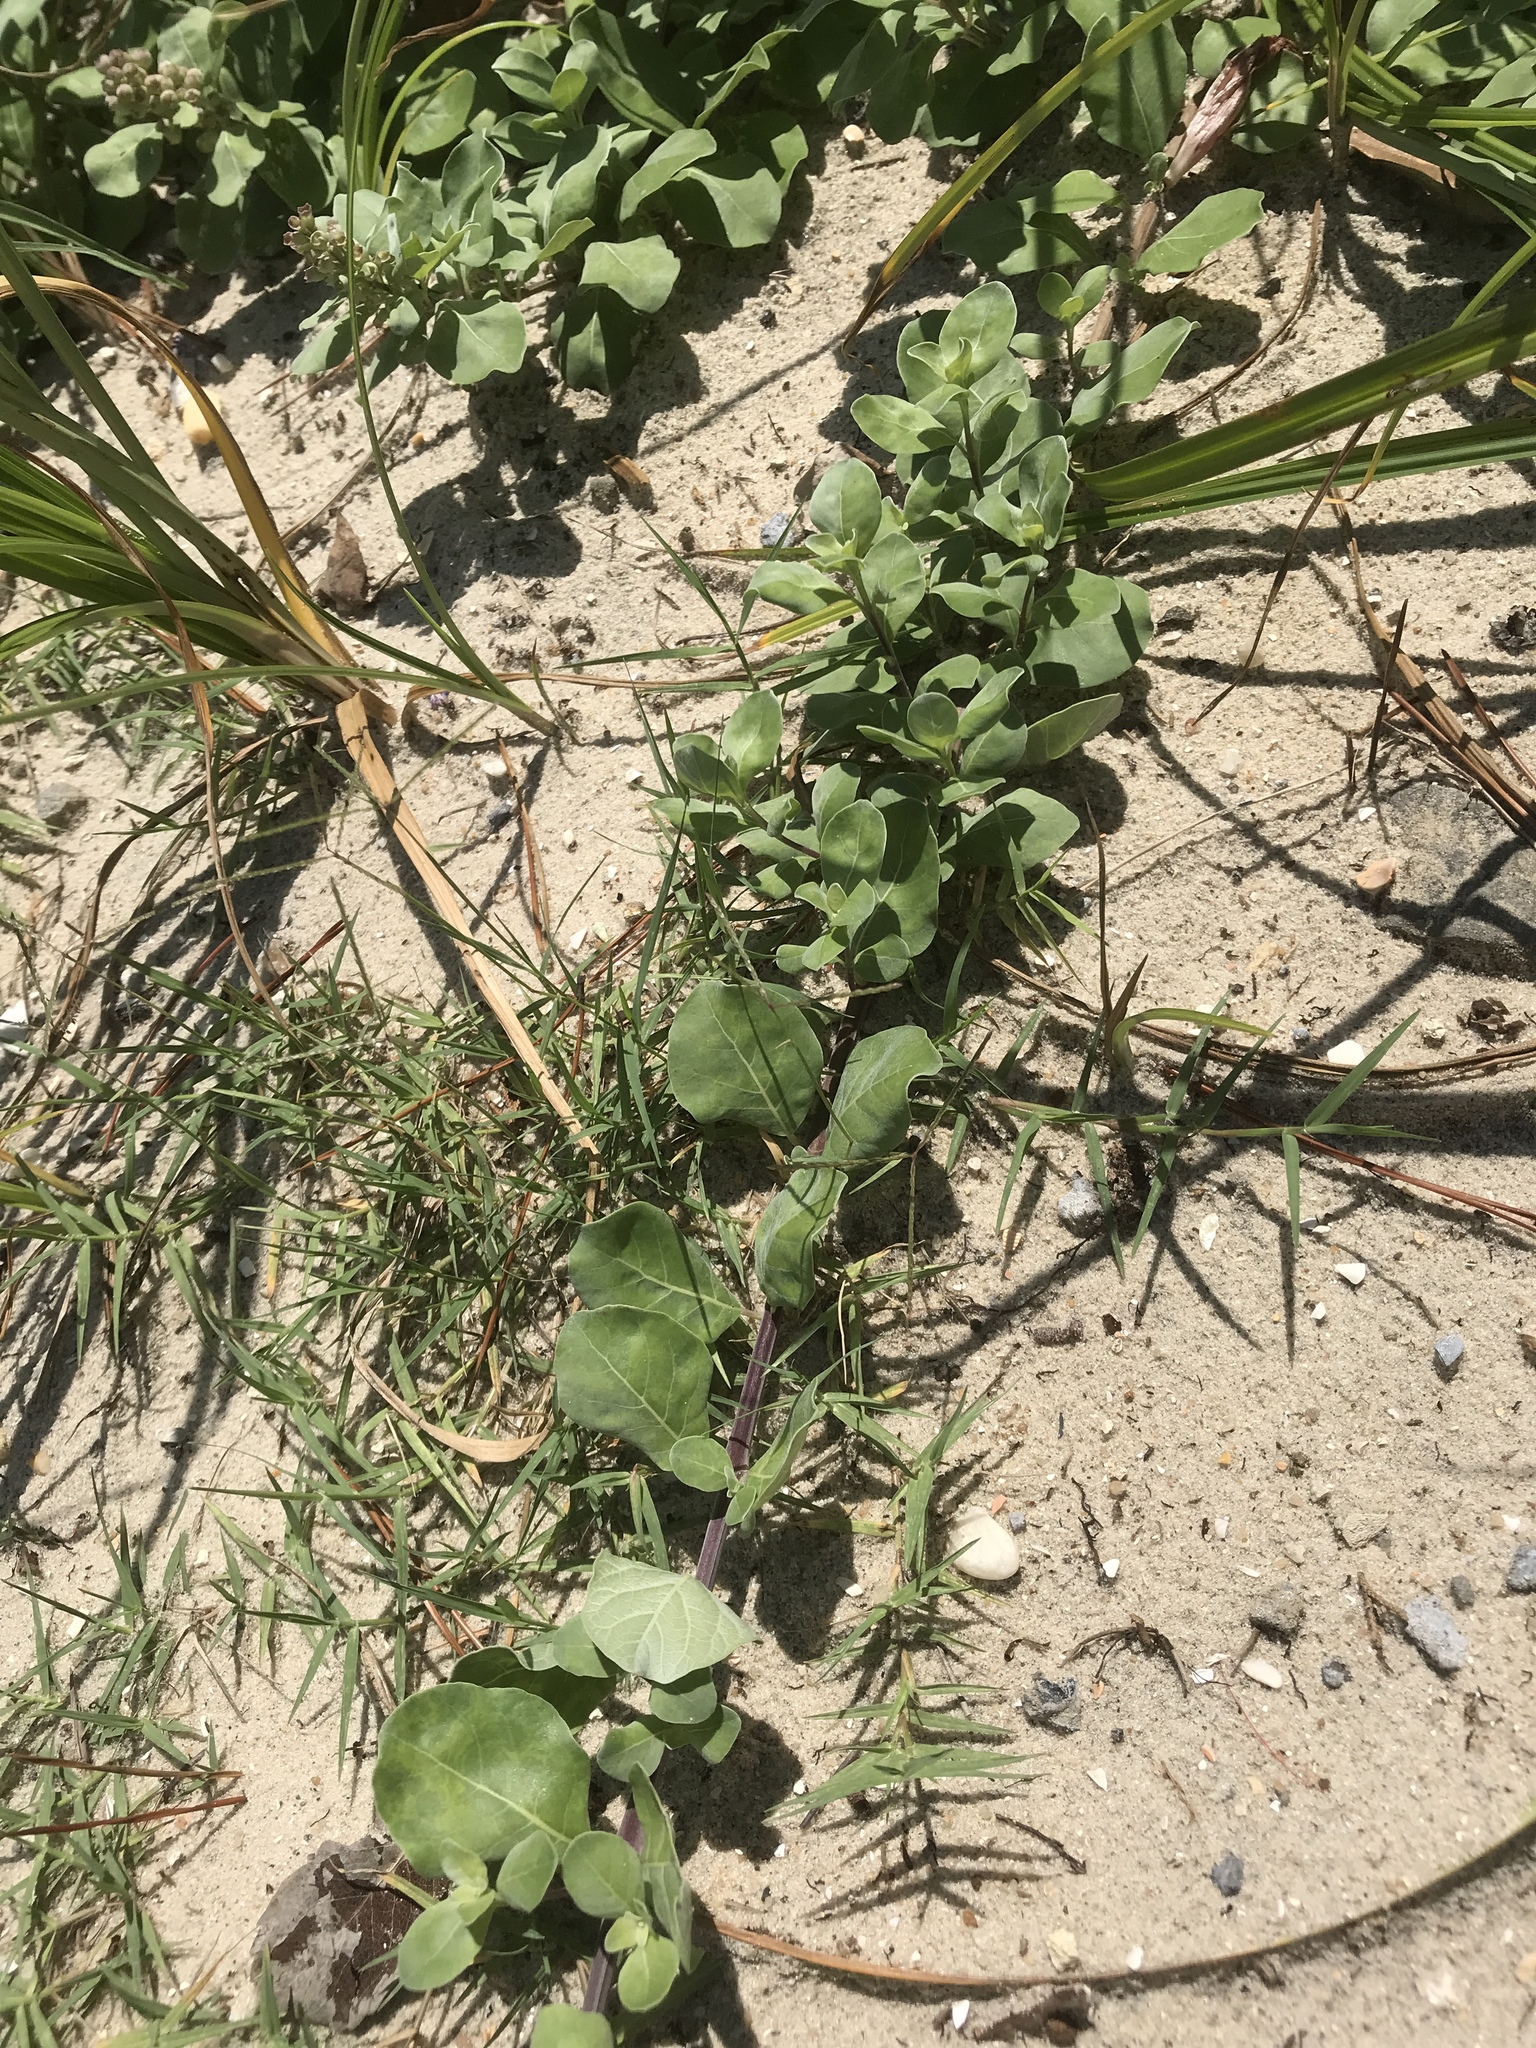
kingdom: Plantae
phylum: Tracheophyta
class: Magnoliopsida
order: Lamiales
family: Lamiaceae
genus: Vitex
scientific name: Vitex rotundifolia
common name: Beach vitex
